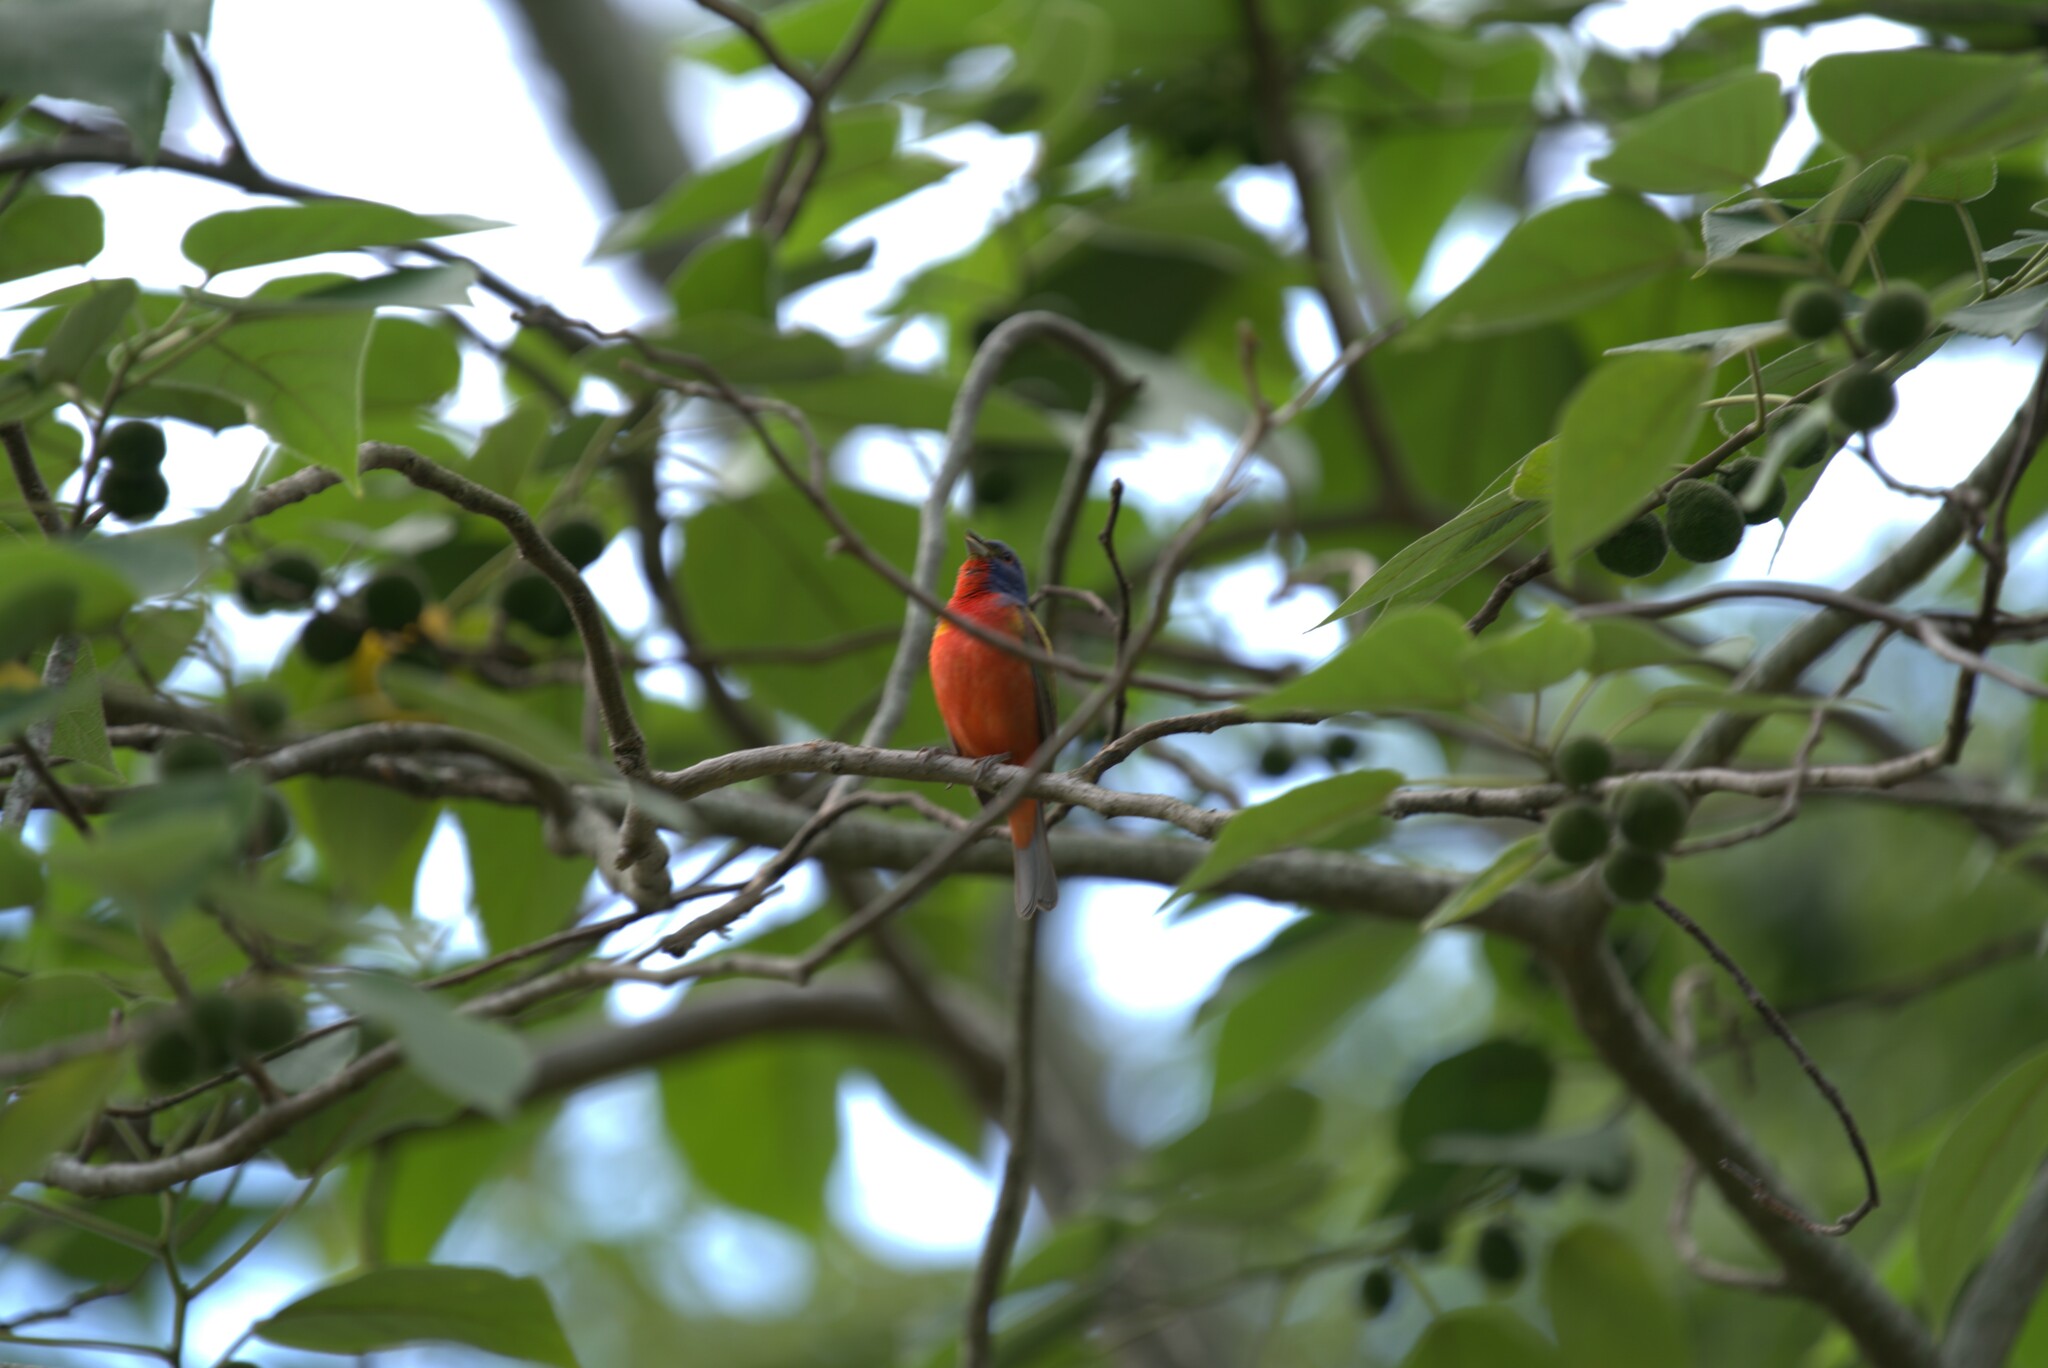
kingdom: Animalia
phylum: Chordata
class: Aves
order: Passeriformes
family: Cardinalidae
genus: Passerina
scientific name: Passerina ciris
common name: Painted bunting
